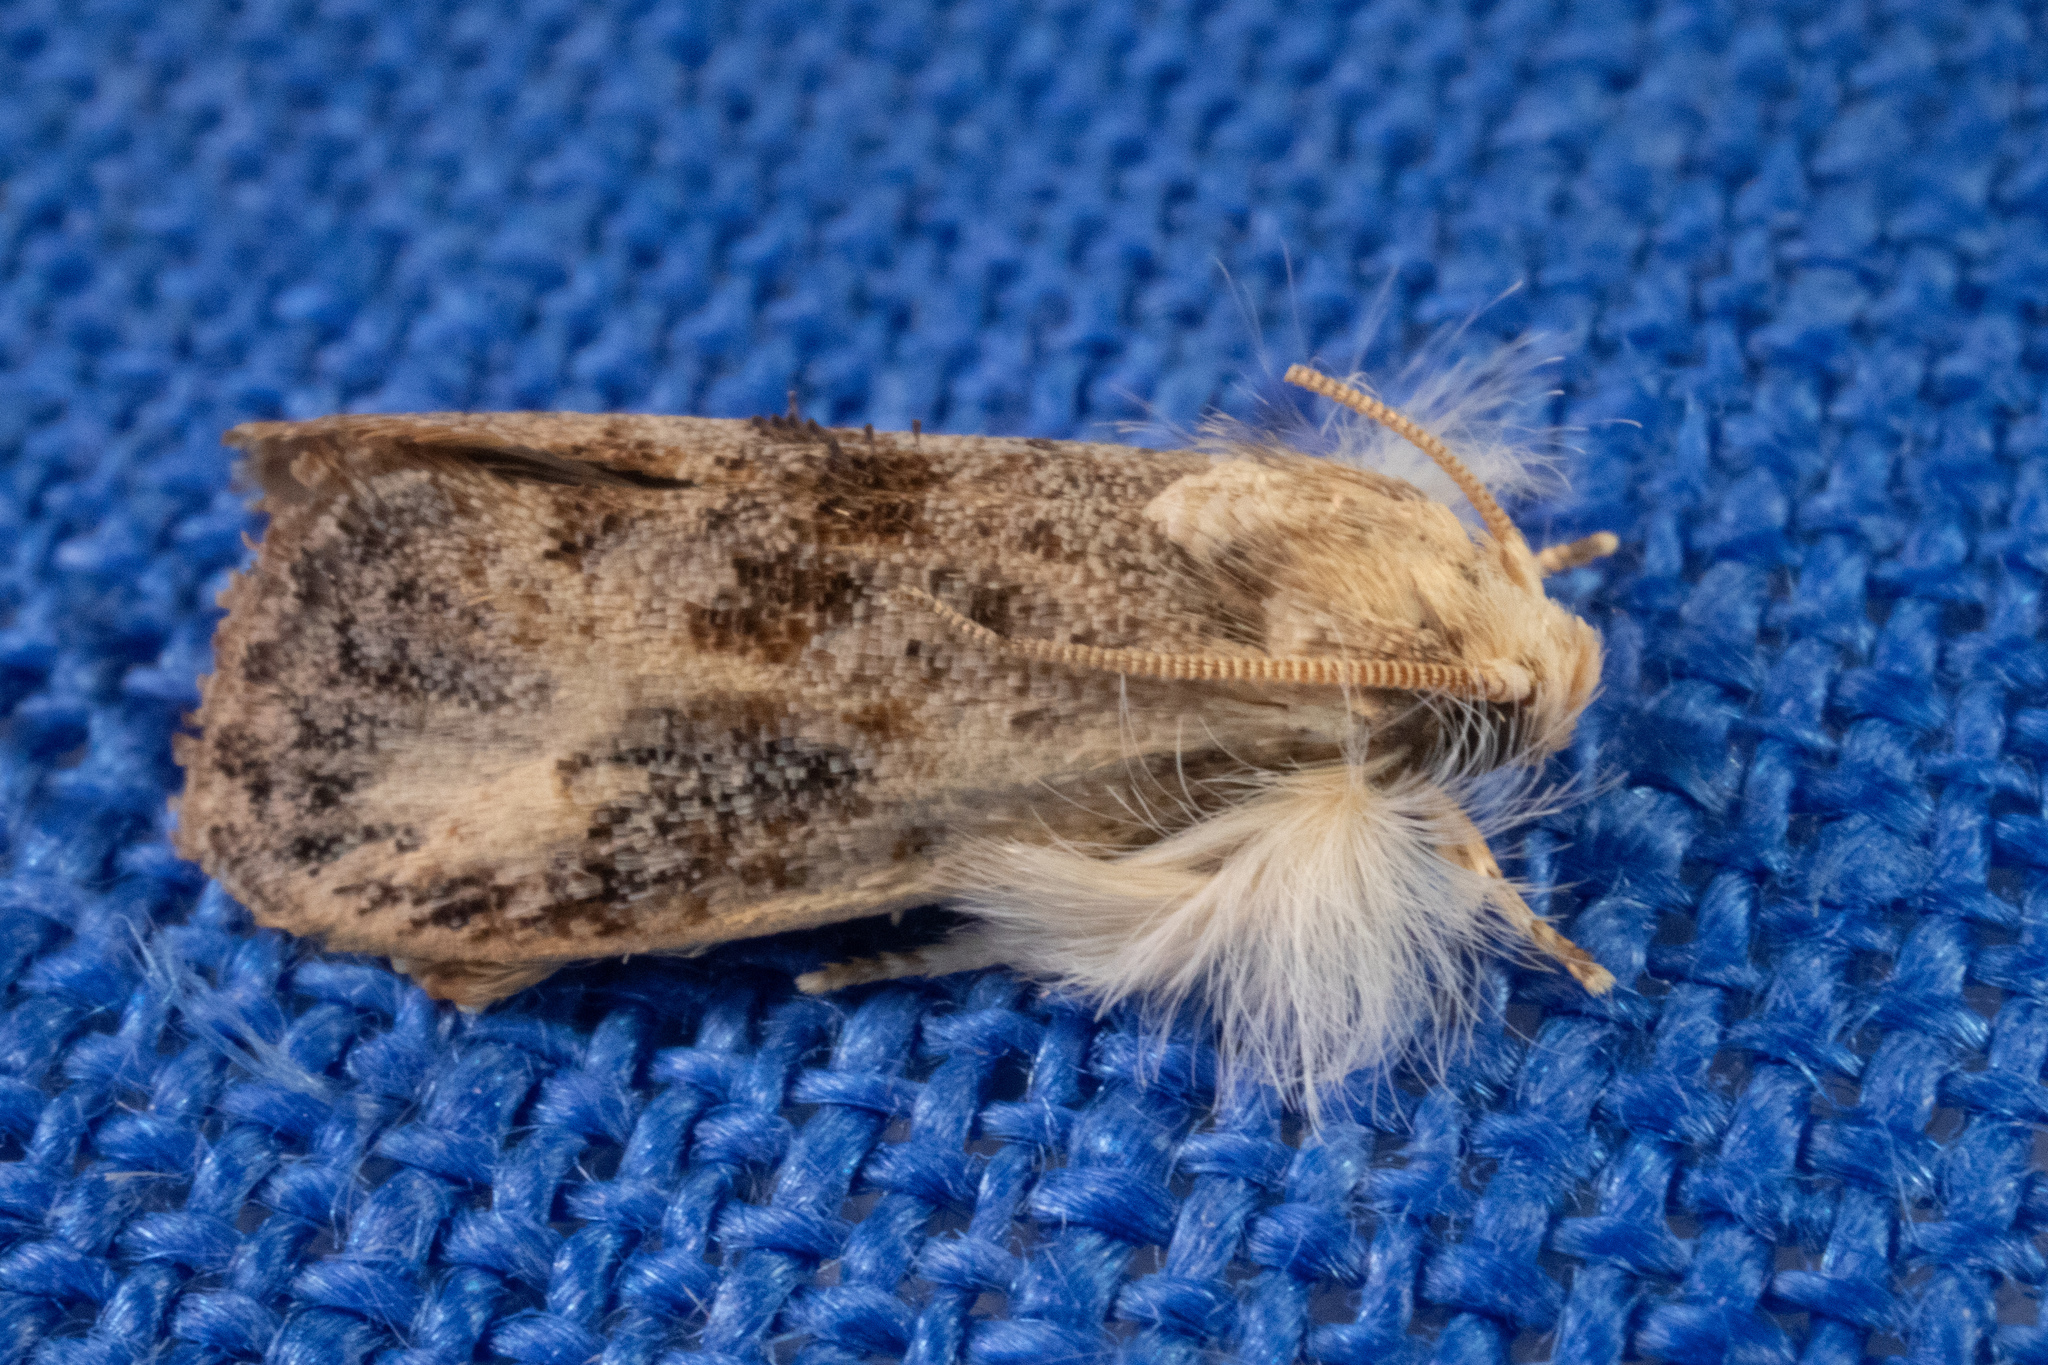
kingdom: Animalia
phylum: Arthropoda
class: Insecta
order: Lepidoptera
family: Tineidae
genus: Acrolophus
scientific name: Acrolophus mycetophagus
